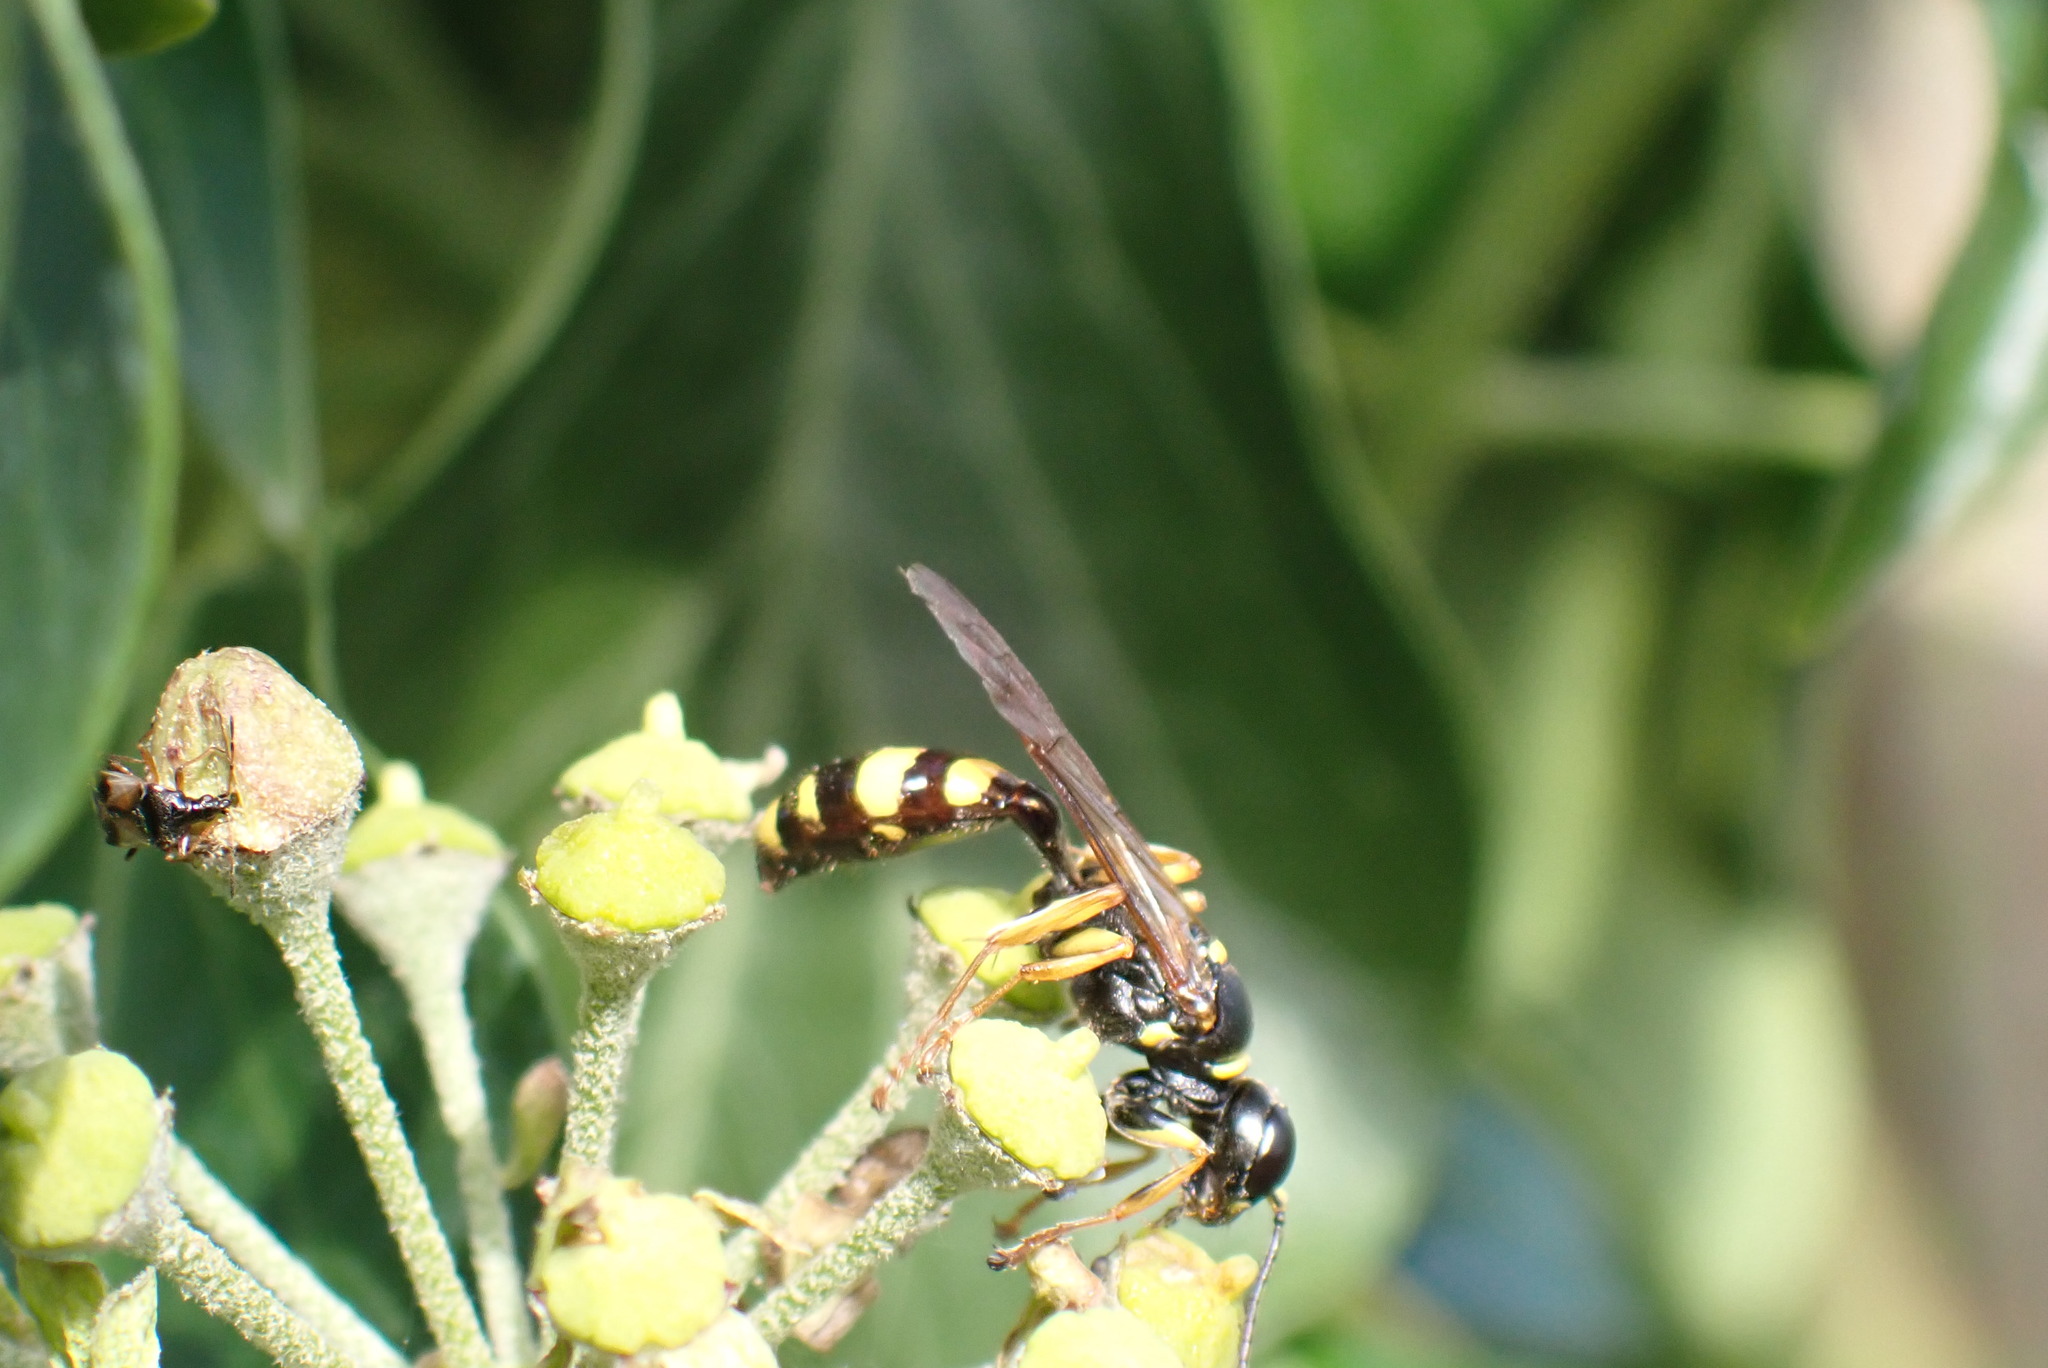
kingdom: Animalia
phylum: Arthropoda
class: Insecta
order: Hymenoptera
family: Crabronidae
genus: Mellinus
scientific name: Mellinus arvensis
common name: Field digger wasp
